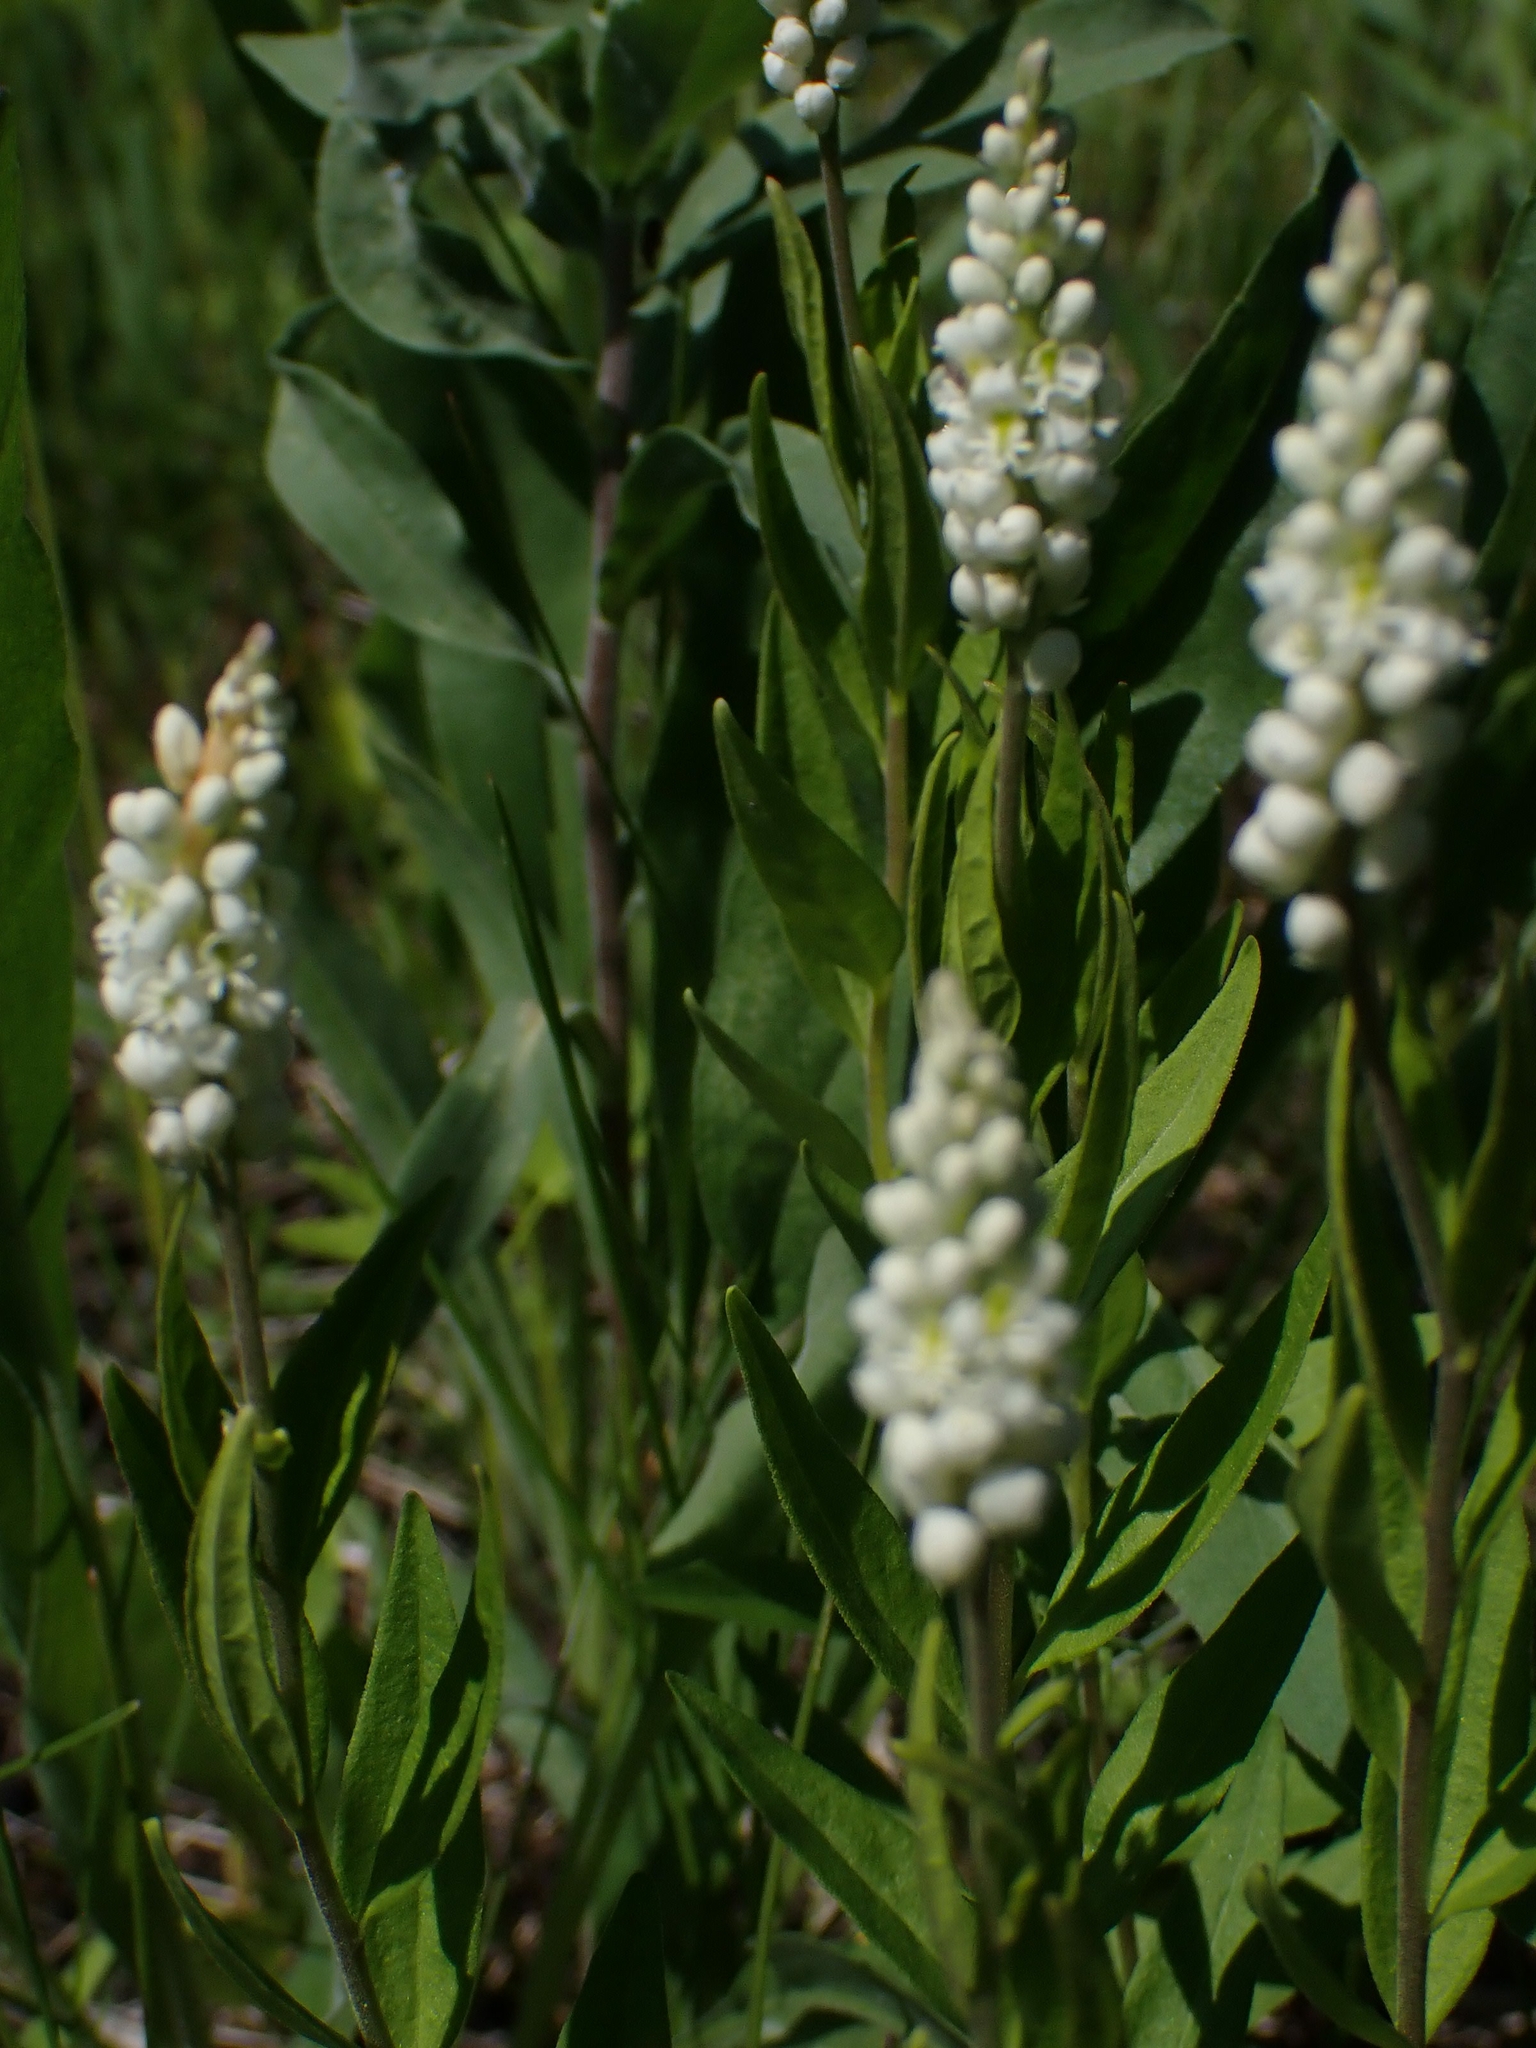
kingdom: Plantae
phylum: Tracheophyta
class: Magnoliopsida
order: Fabales
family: Polygalaceae
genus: Polygala
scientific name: Polygala senega
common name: Seneca snakeroot
